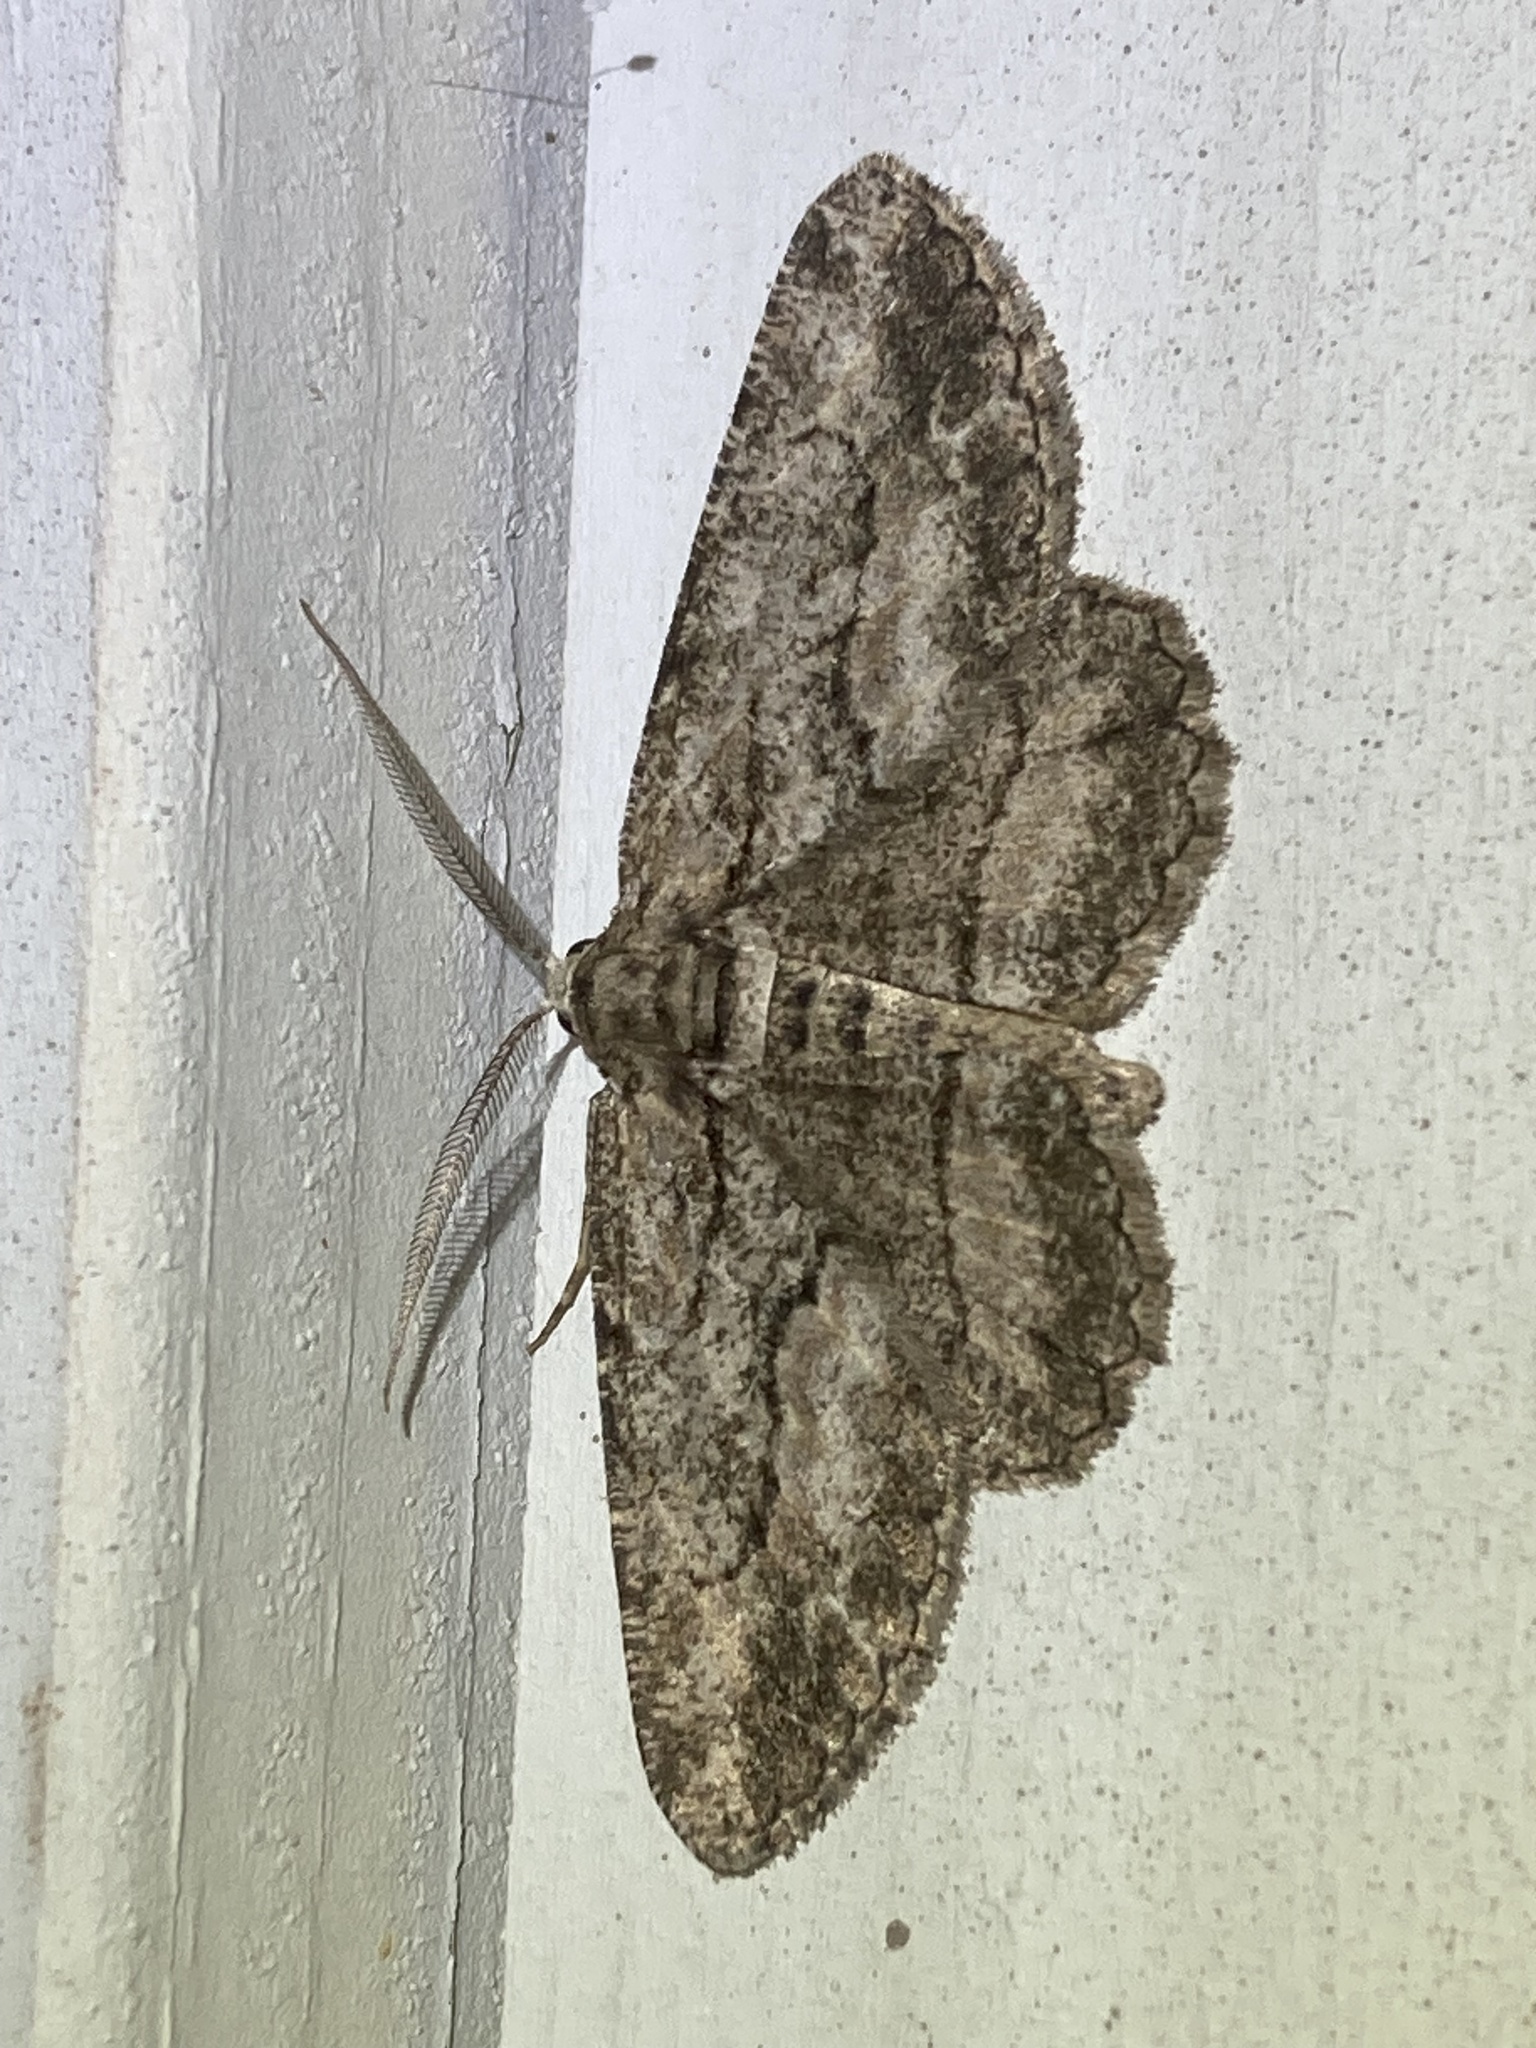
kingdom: Animalia
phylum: Arthropoda
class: Insecta
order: Lepidoptera
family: Geometridae
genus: Anavitrinella
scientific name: Anavitrinella pampinaria
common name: Common gray
